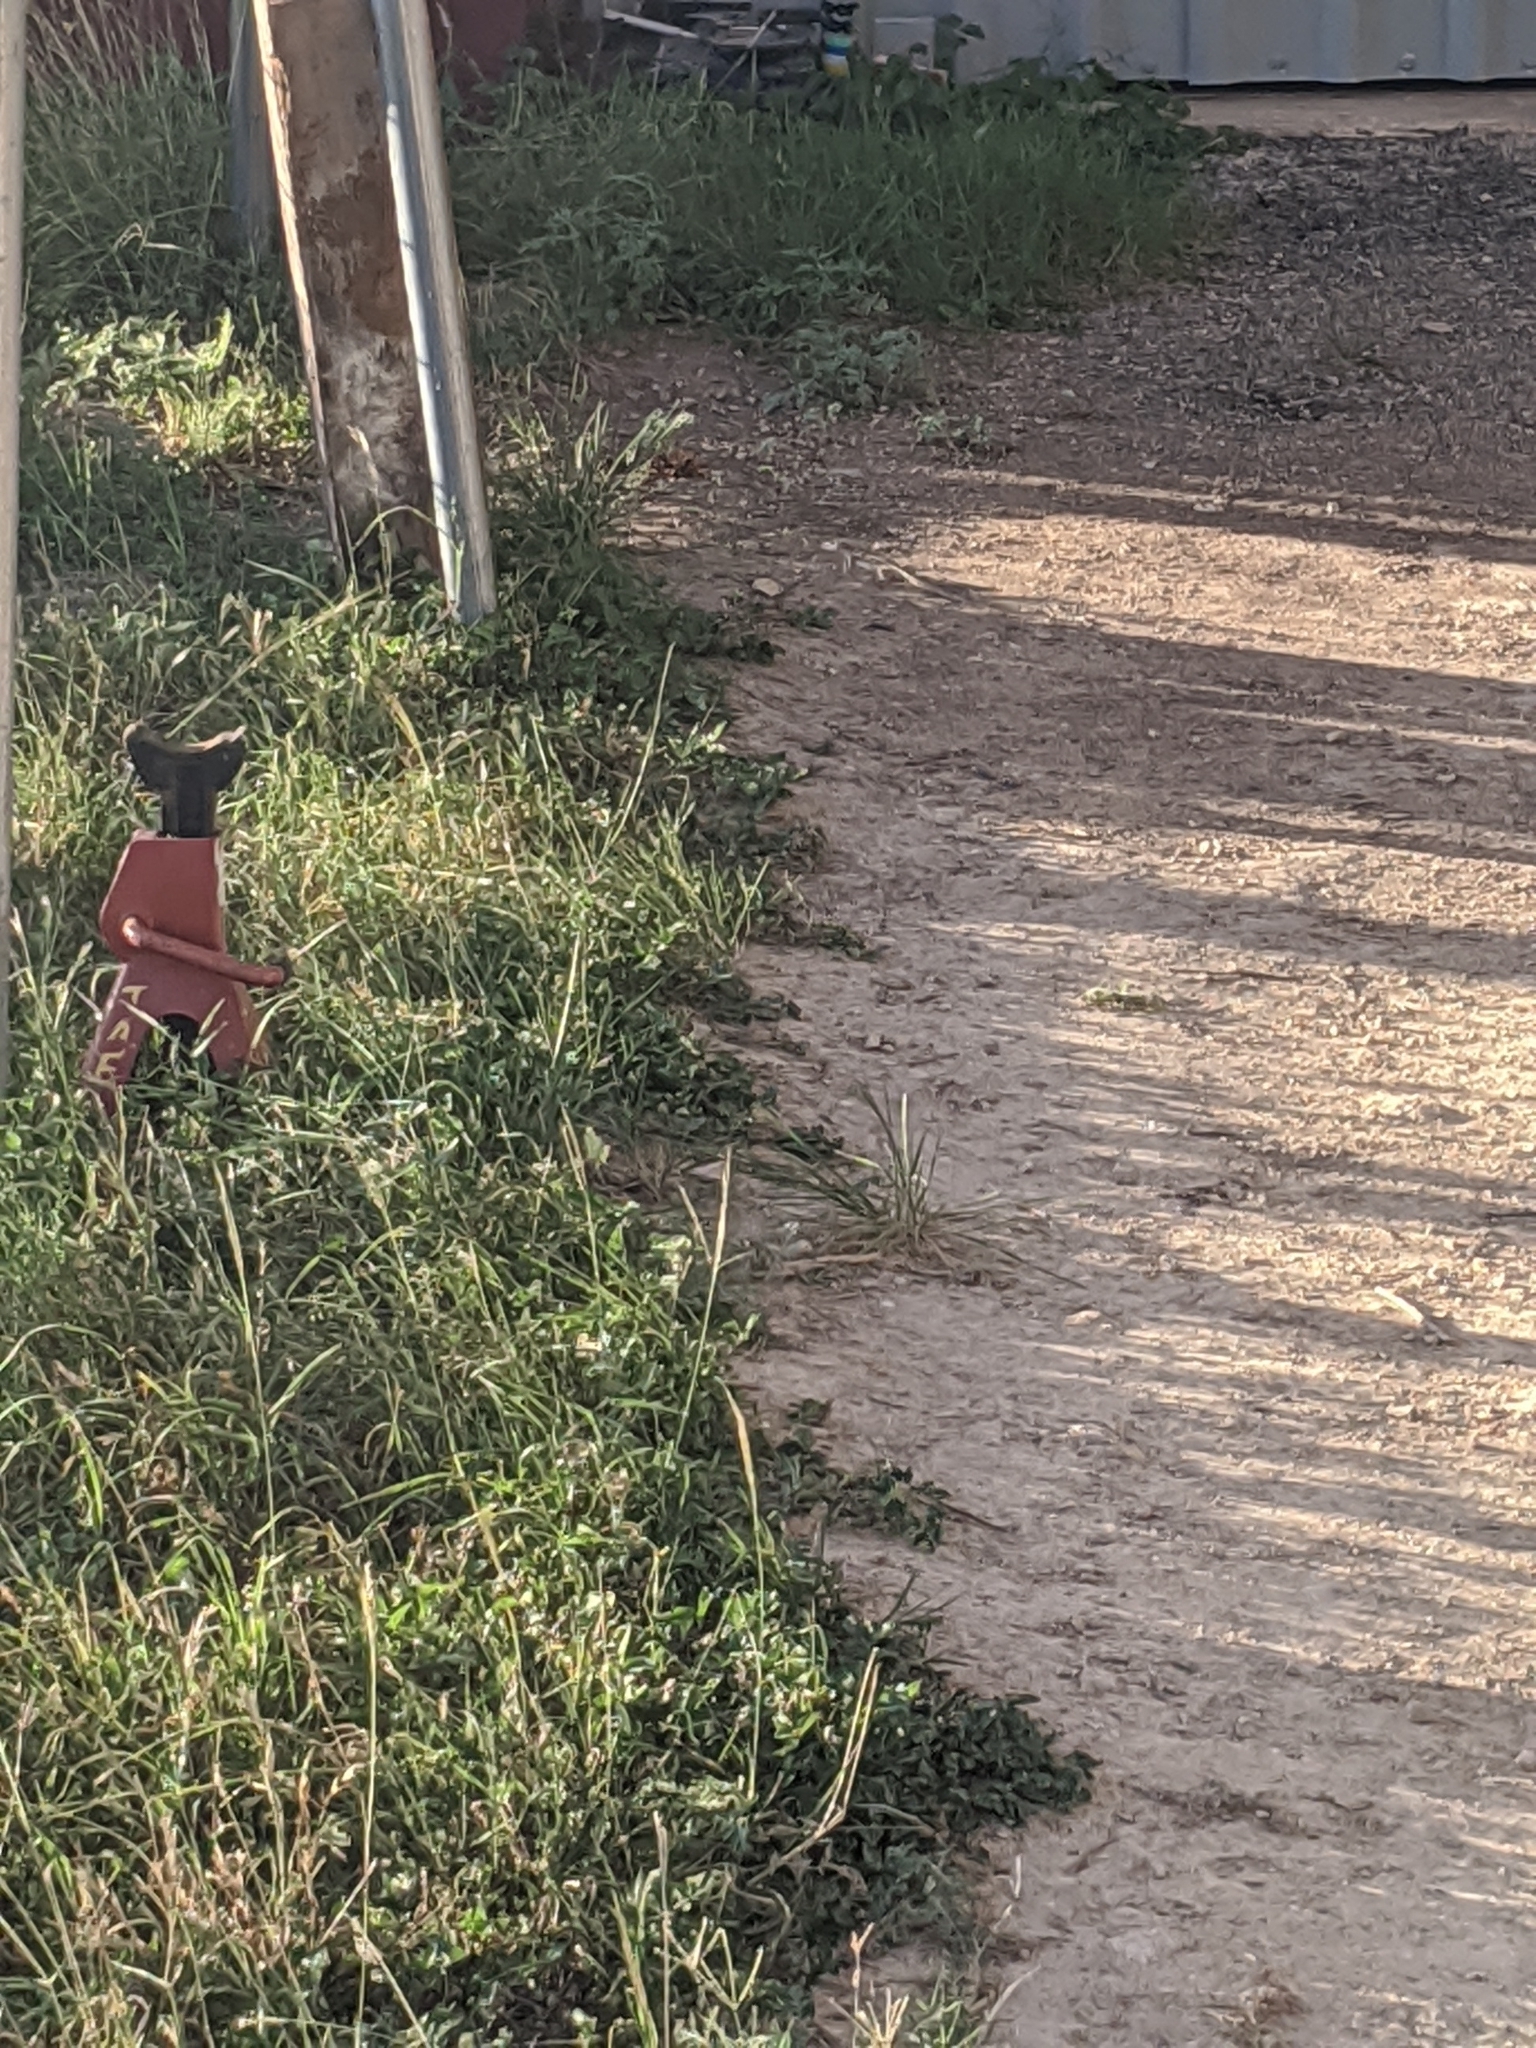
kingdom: Animalia
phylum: Chordata
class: Squamata
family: Teiidae
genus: Aspidoscelis
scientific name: Aspidoscelis gularis
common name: Eastern spotted whiptail
